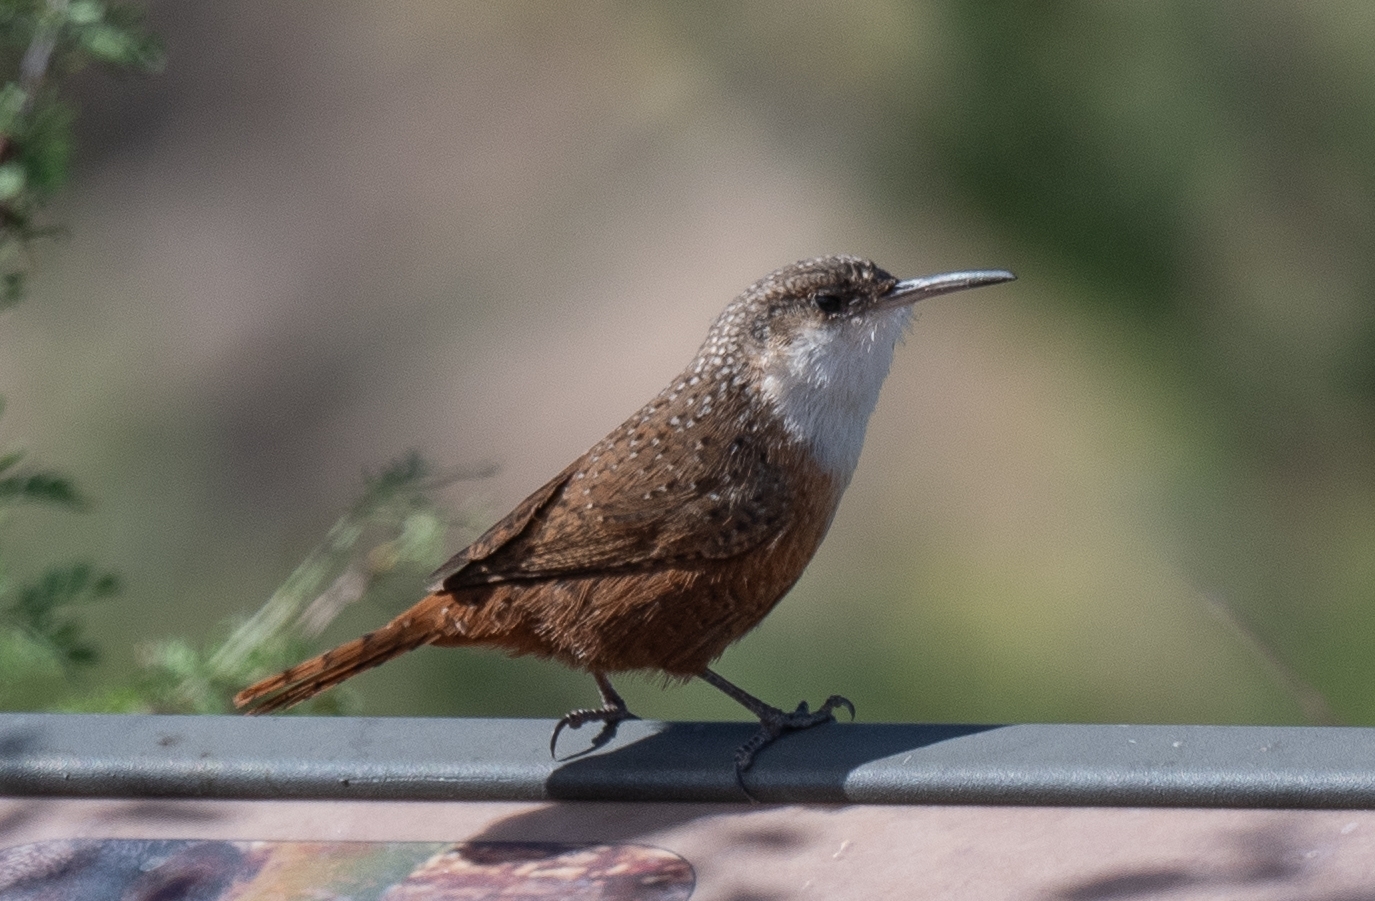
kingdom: Animalia
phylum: Chordata
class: Aves
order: Passeriformes
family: Troglodytidae
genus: Catherpes
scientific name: Catherpes mexicanus
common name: Canyon wren
